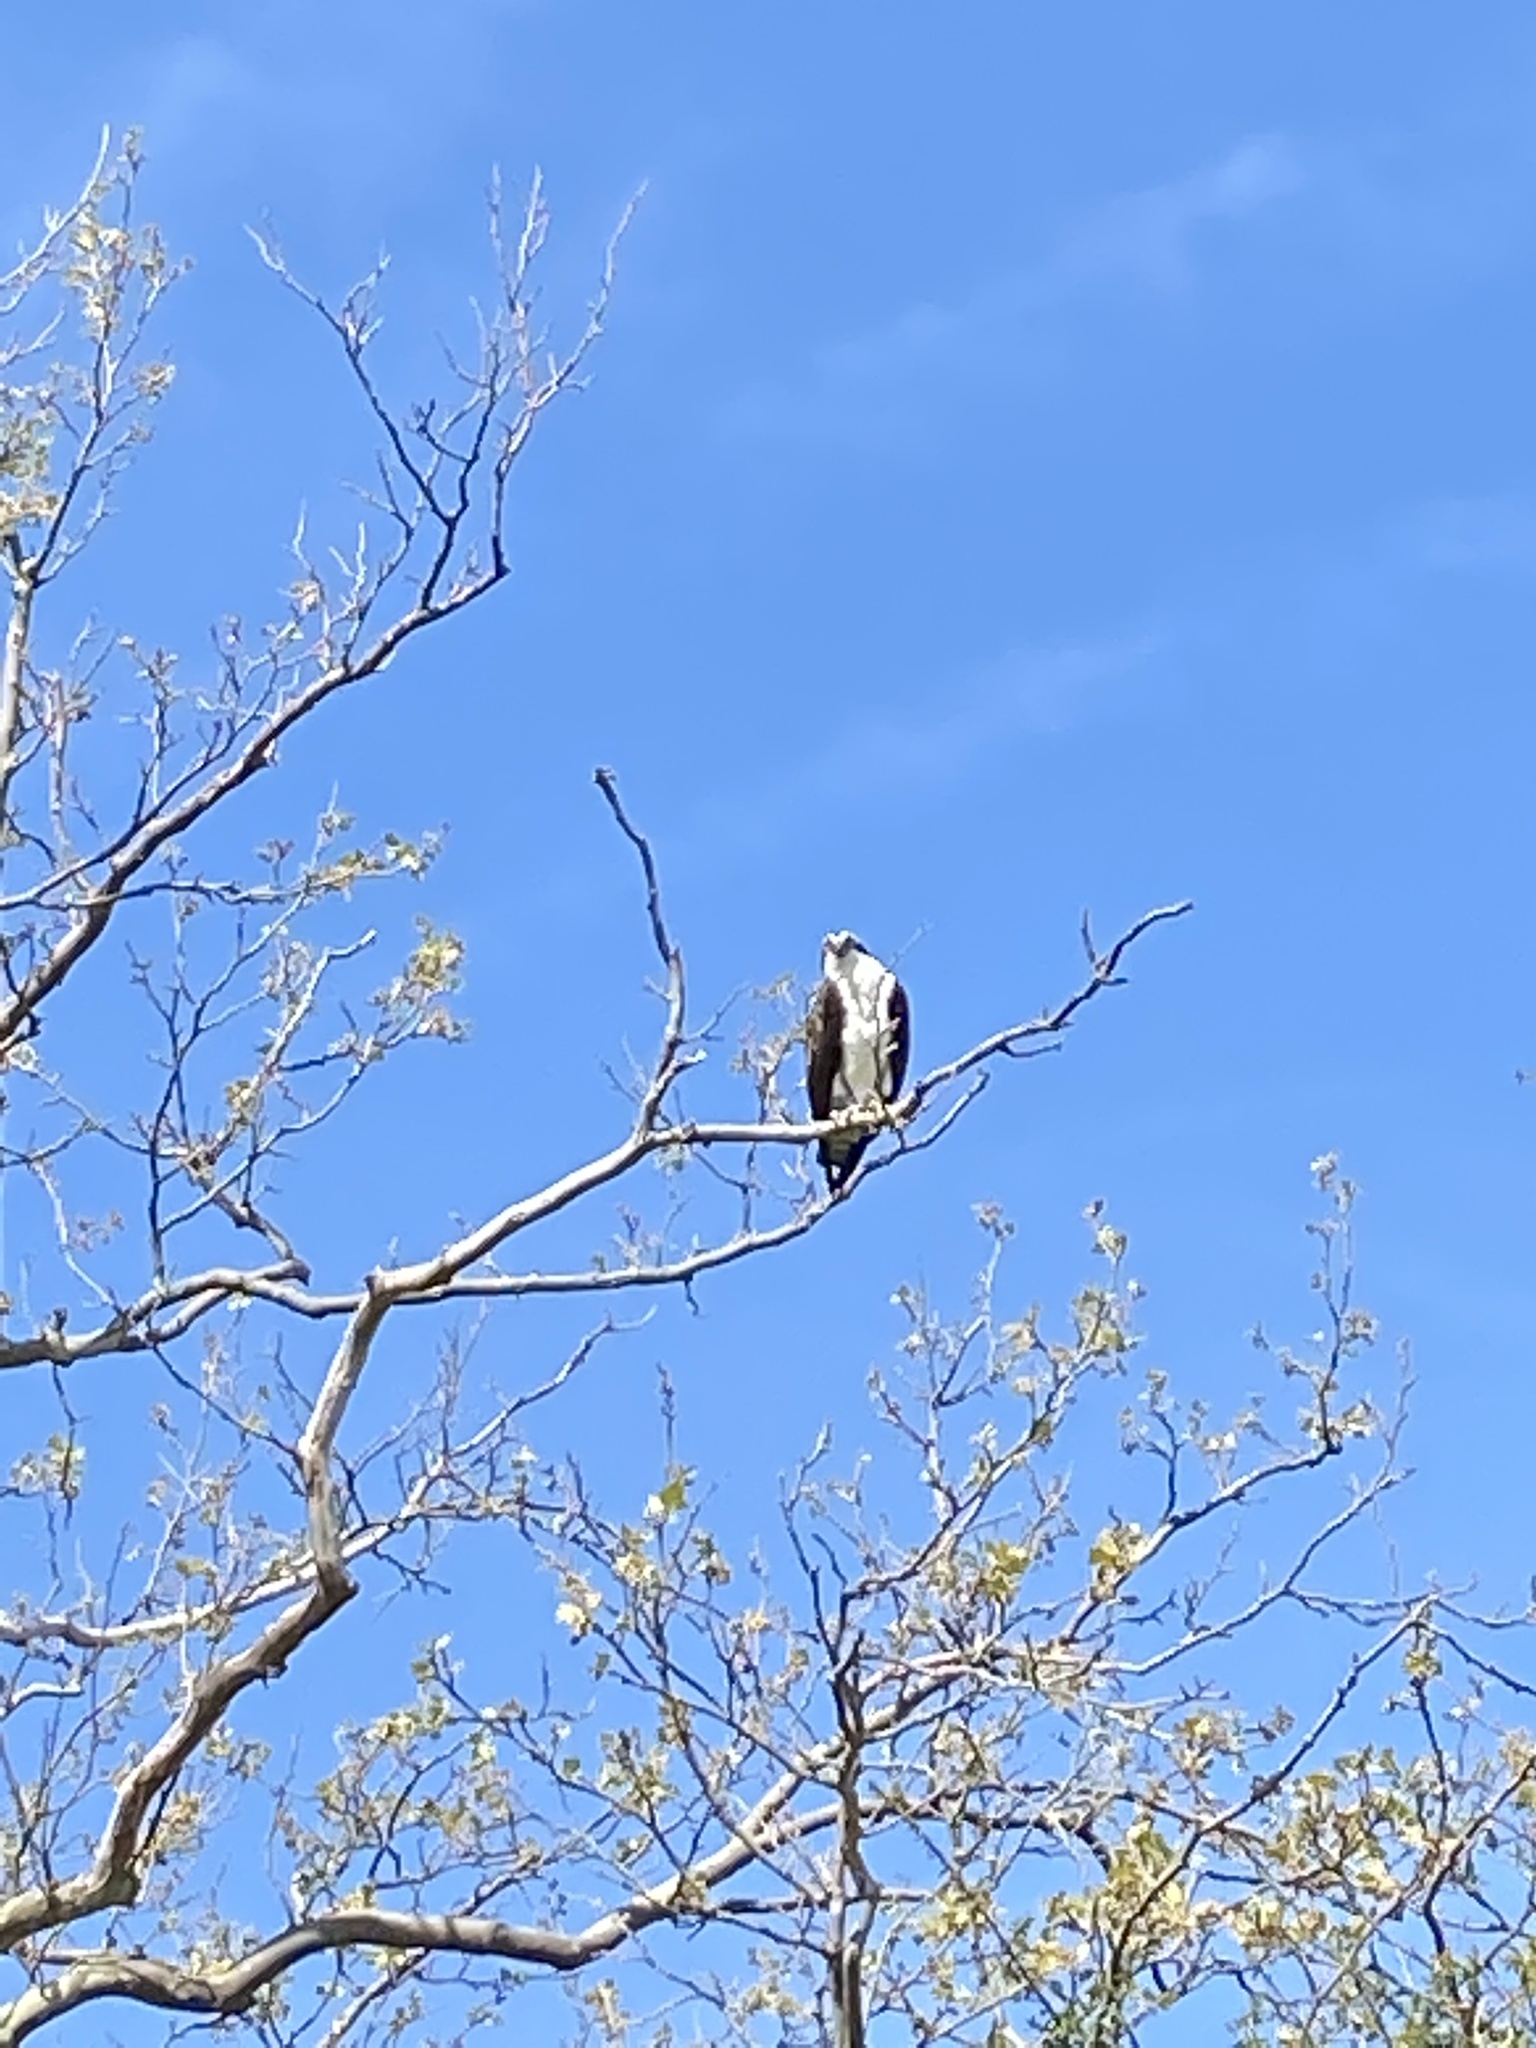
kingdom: Animalia
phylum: Chordata
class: Aves
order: Accipitriformes
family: Pandionidae
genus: Pandion
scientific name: Pandion haliaetus
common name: Osprey
